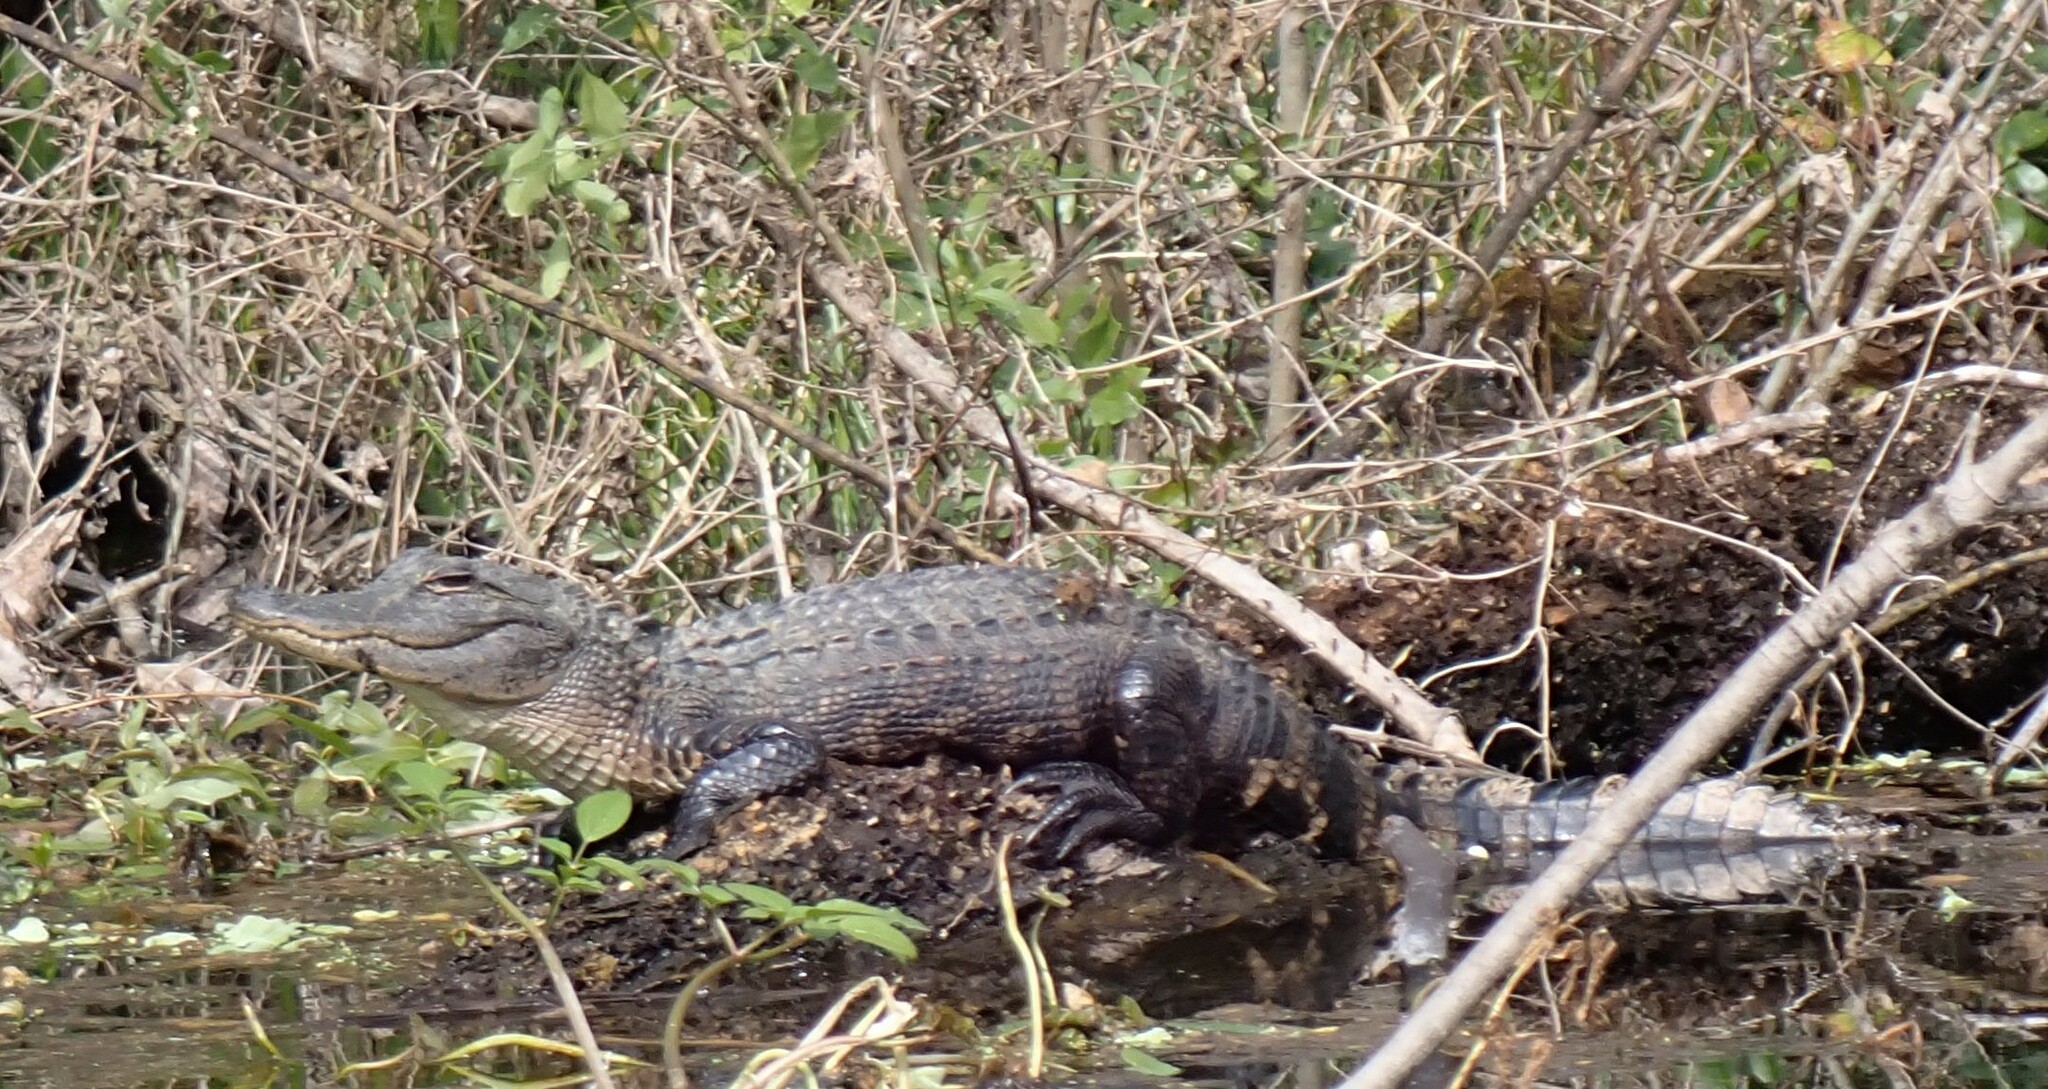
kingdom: Animalia
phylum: Chordata
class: Crocodylia
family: Alligatoridae
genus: Alligator
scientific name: Alligator mississippiensis
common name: American alligator
